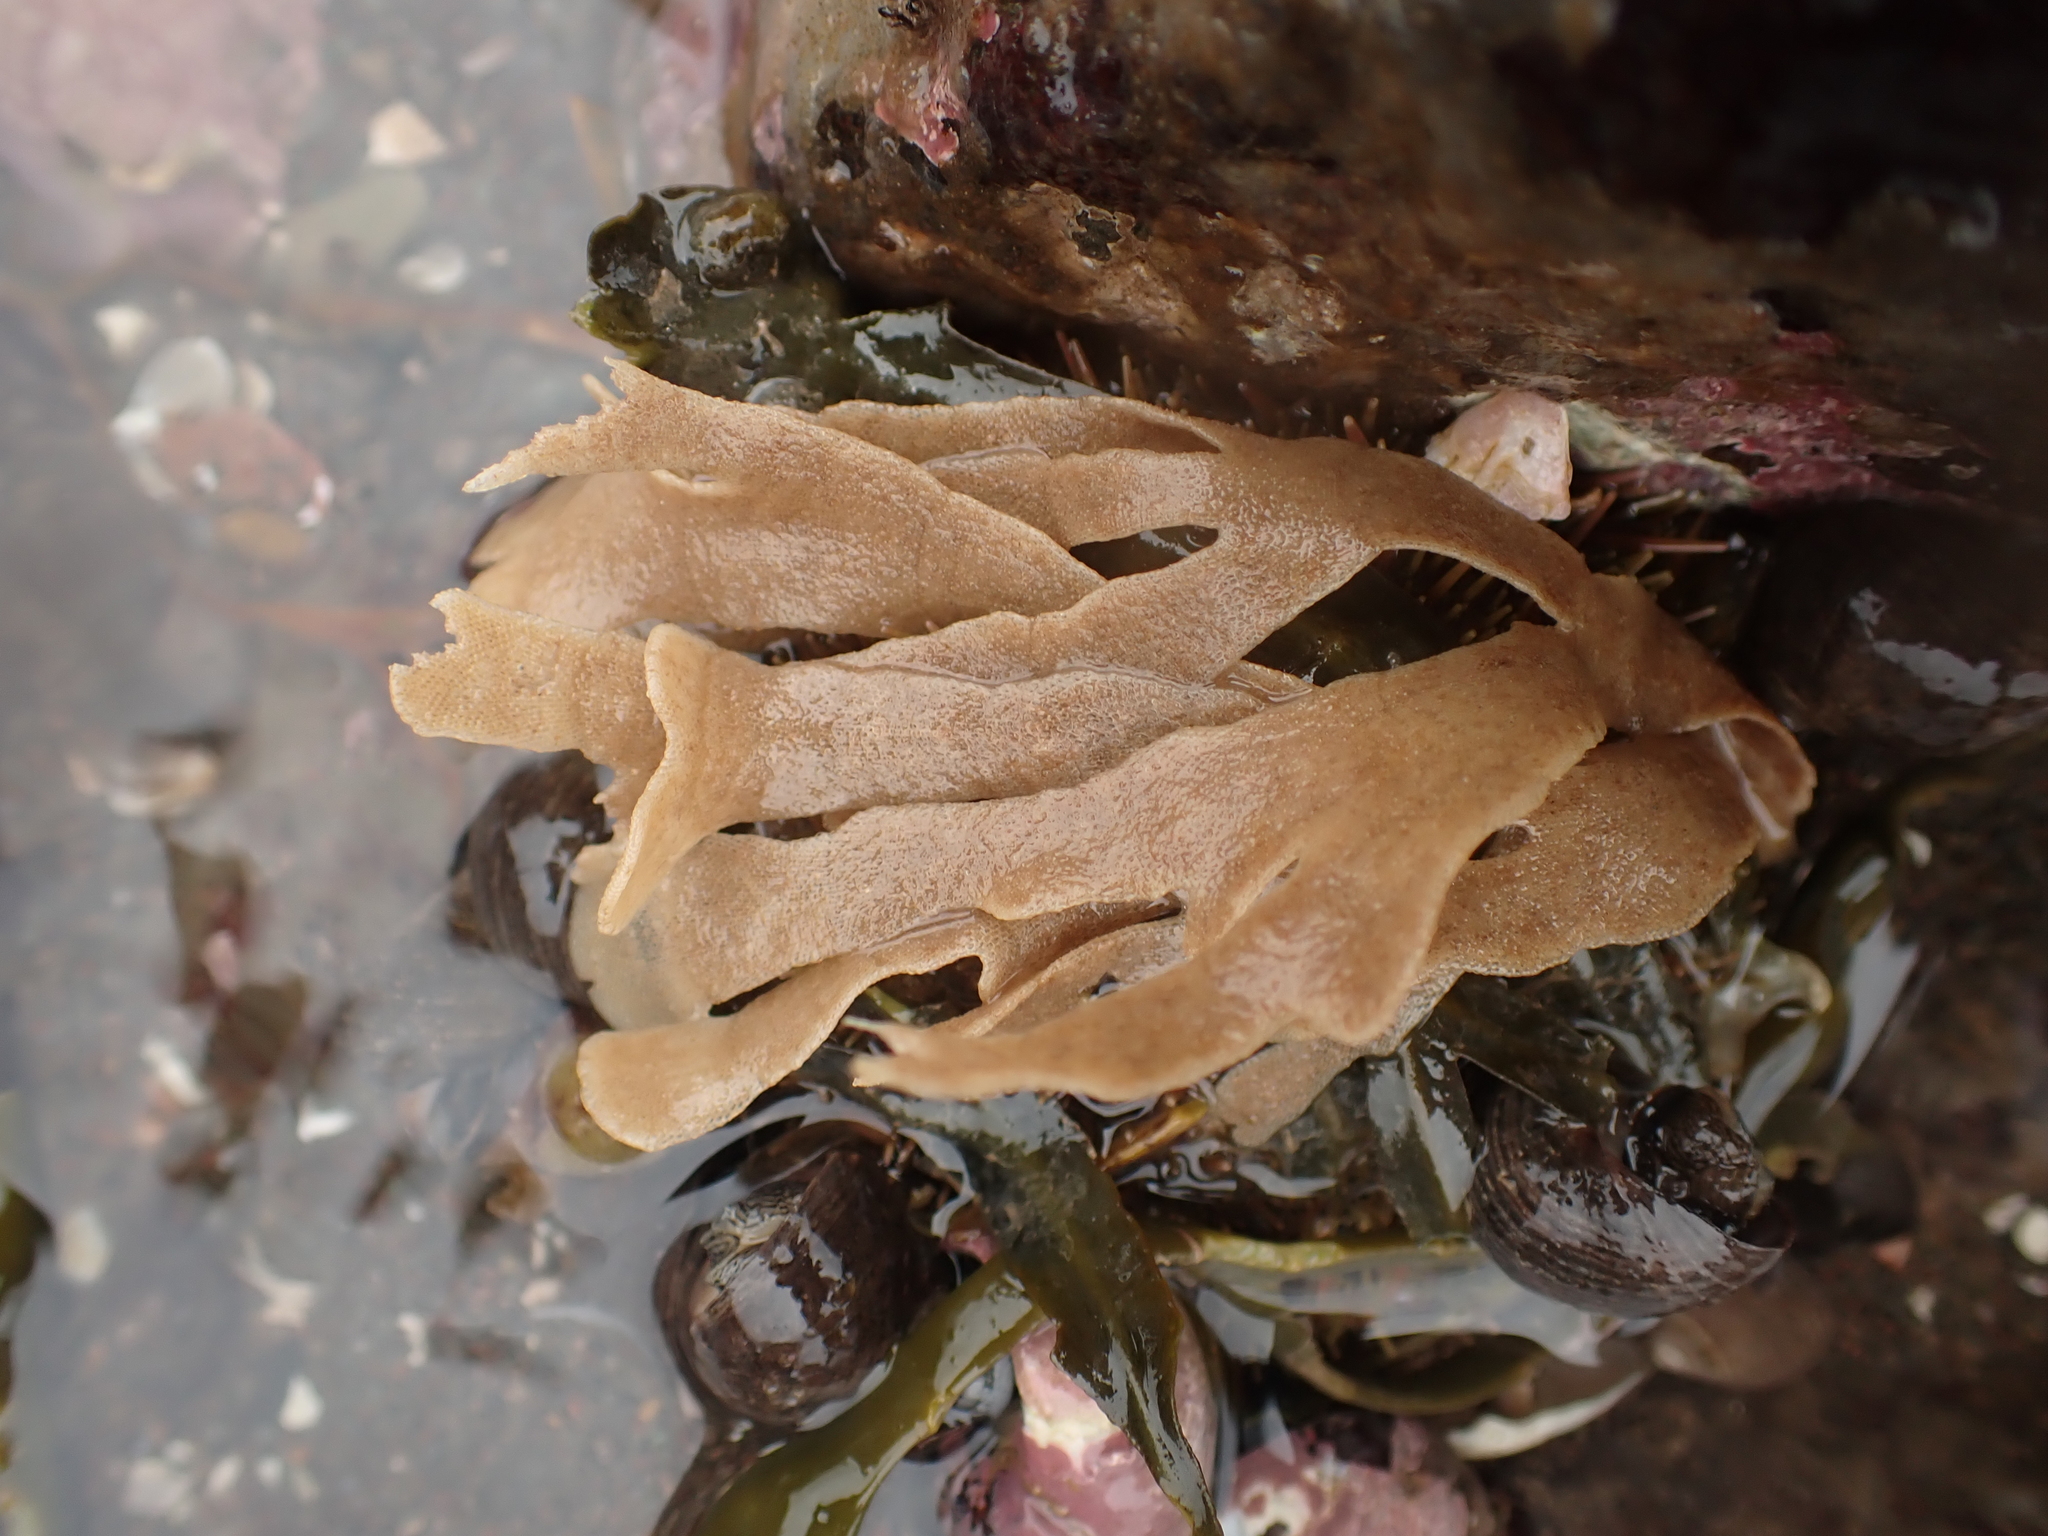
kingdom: Animalia
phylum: Bryozoa
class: Gymnolaemata
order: Cheilostomatida
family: Flustridae
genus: Flustra
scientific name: Flustra foliacea
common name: Hornwrack
